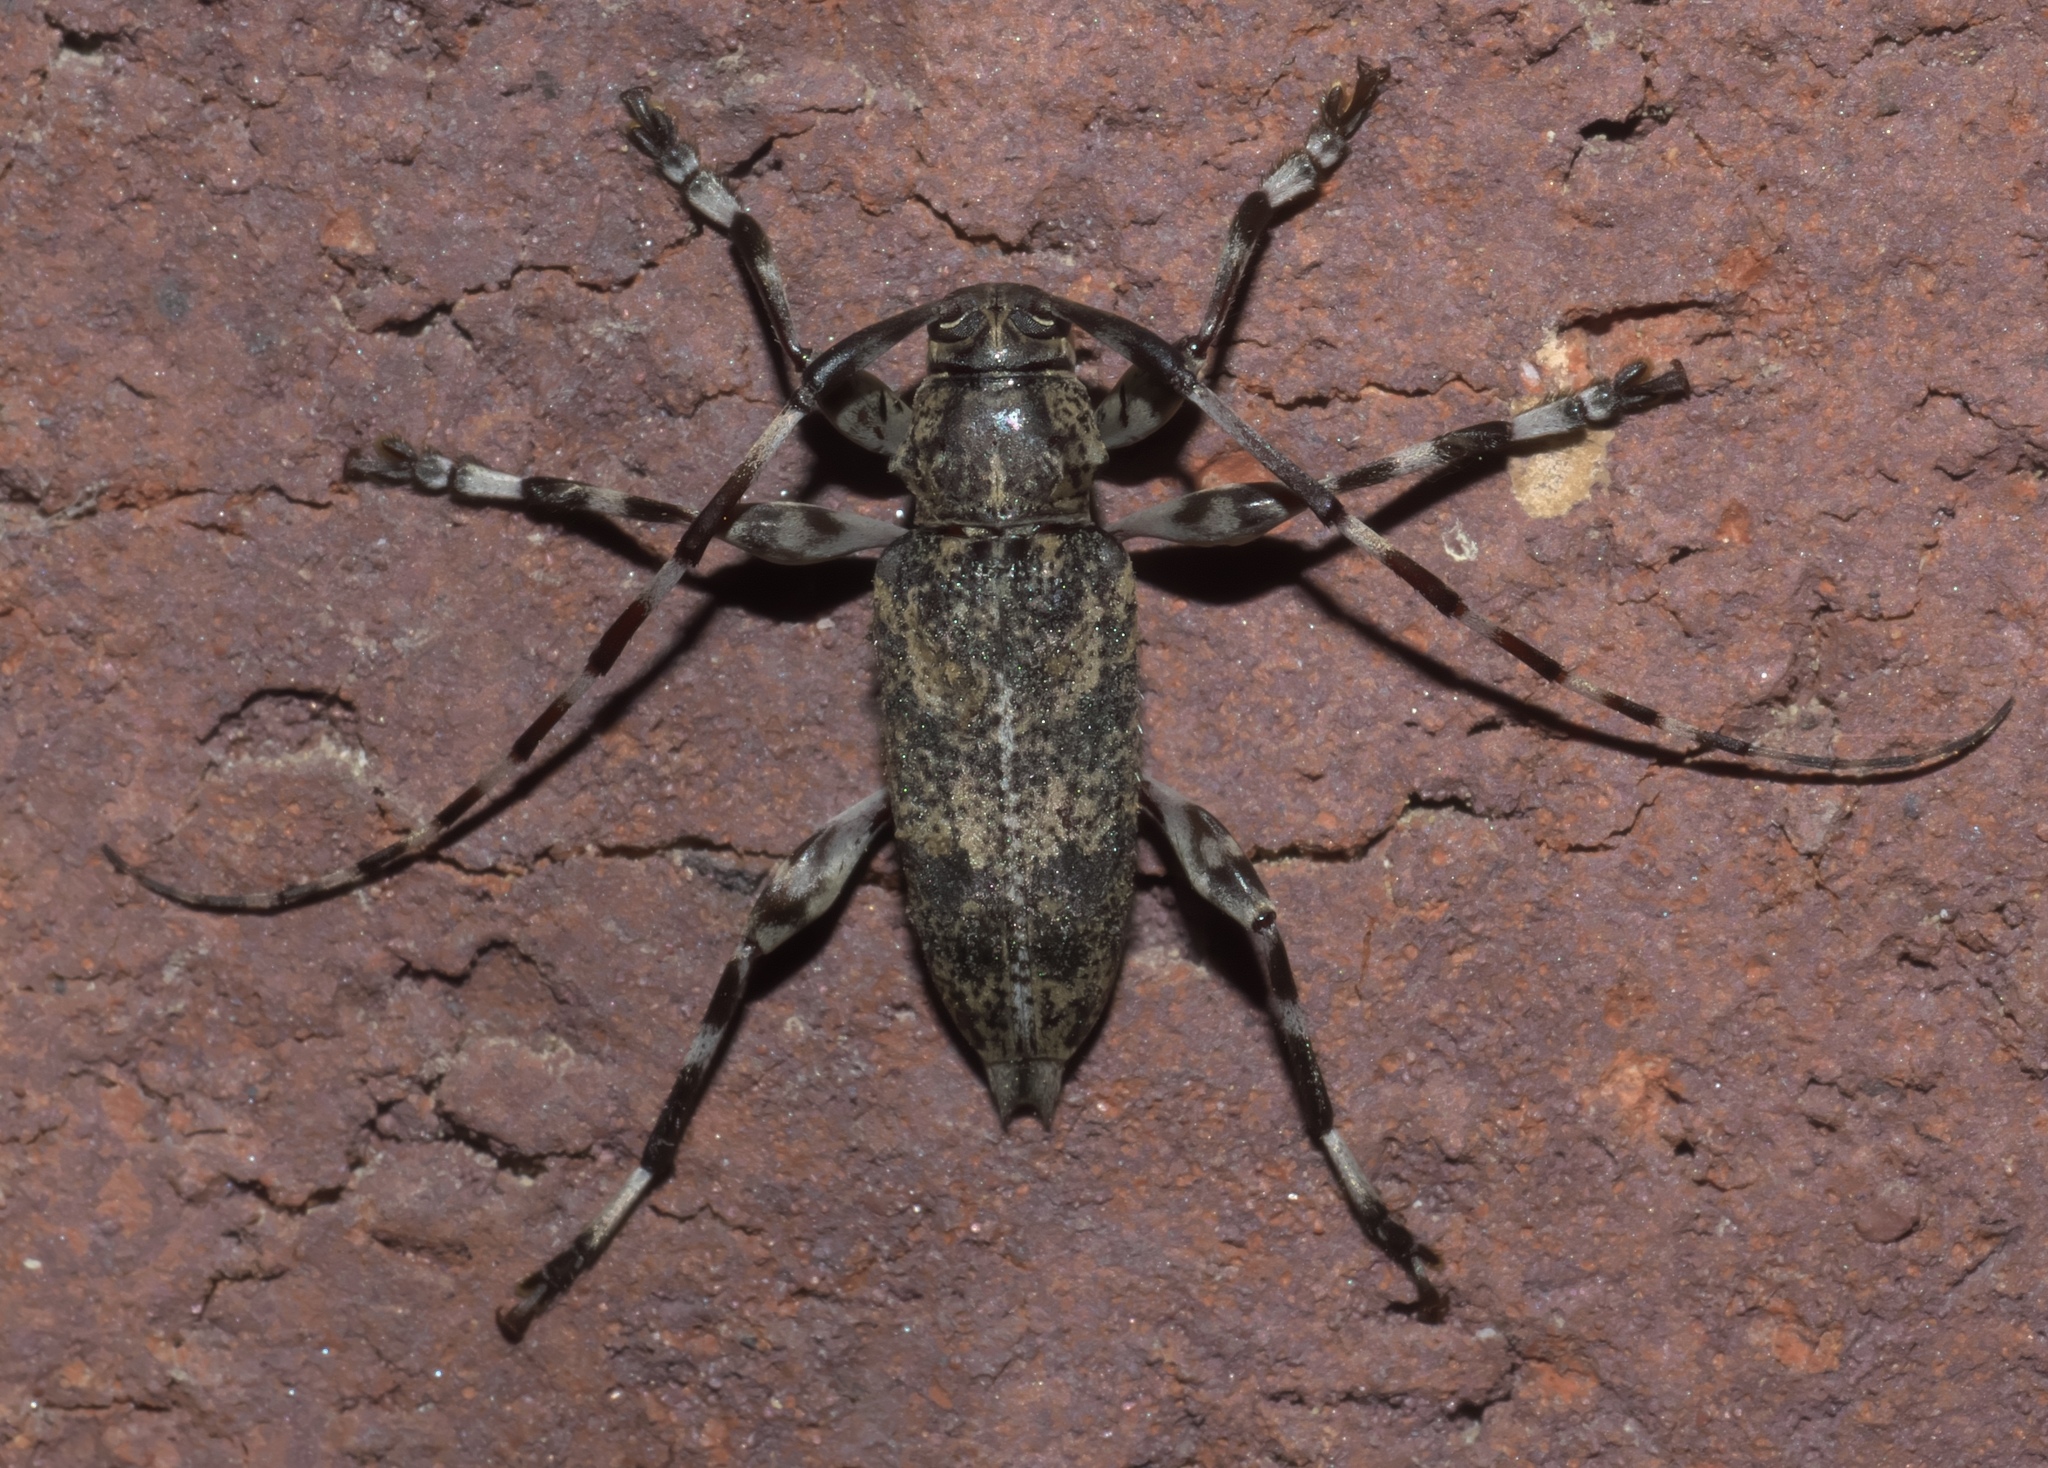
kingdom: Animalia
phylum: Arthropoda
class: Insecta
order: Coleoptera
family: Cerambycidae
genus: Graphisurus
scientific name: Graphisurus fasciatus
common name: Banded graphisurus
